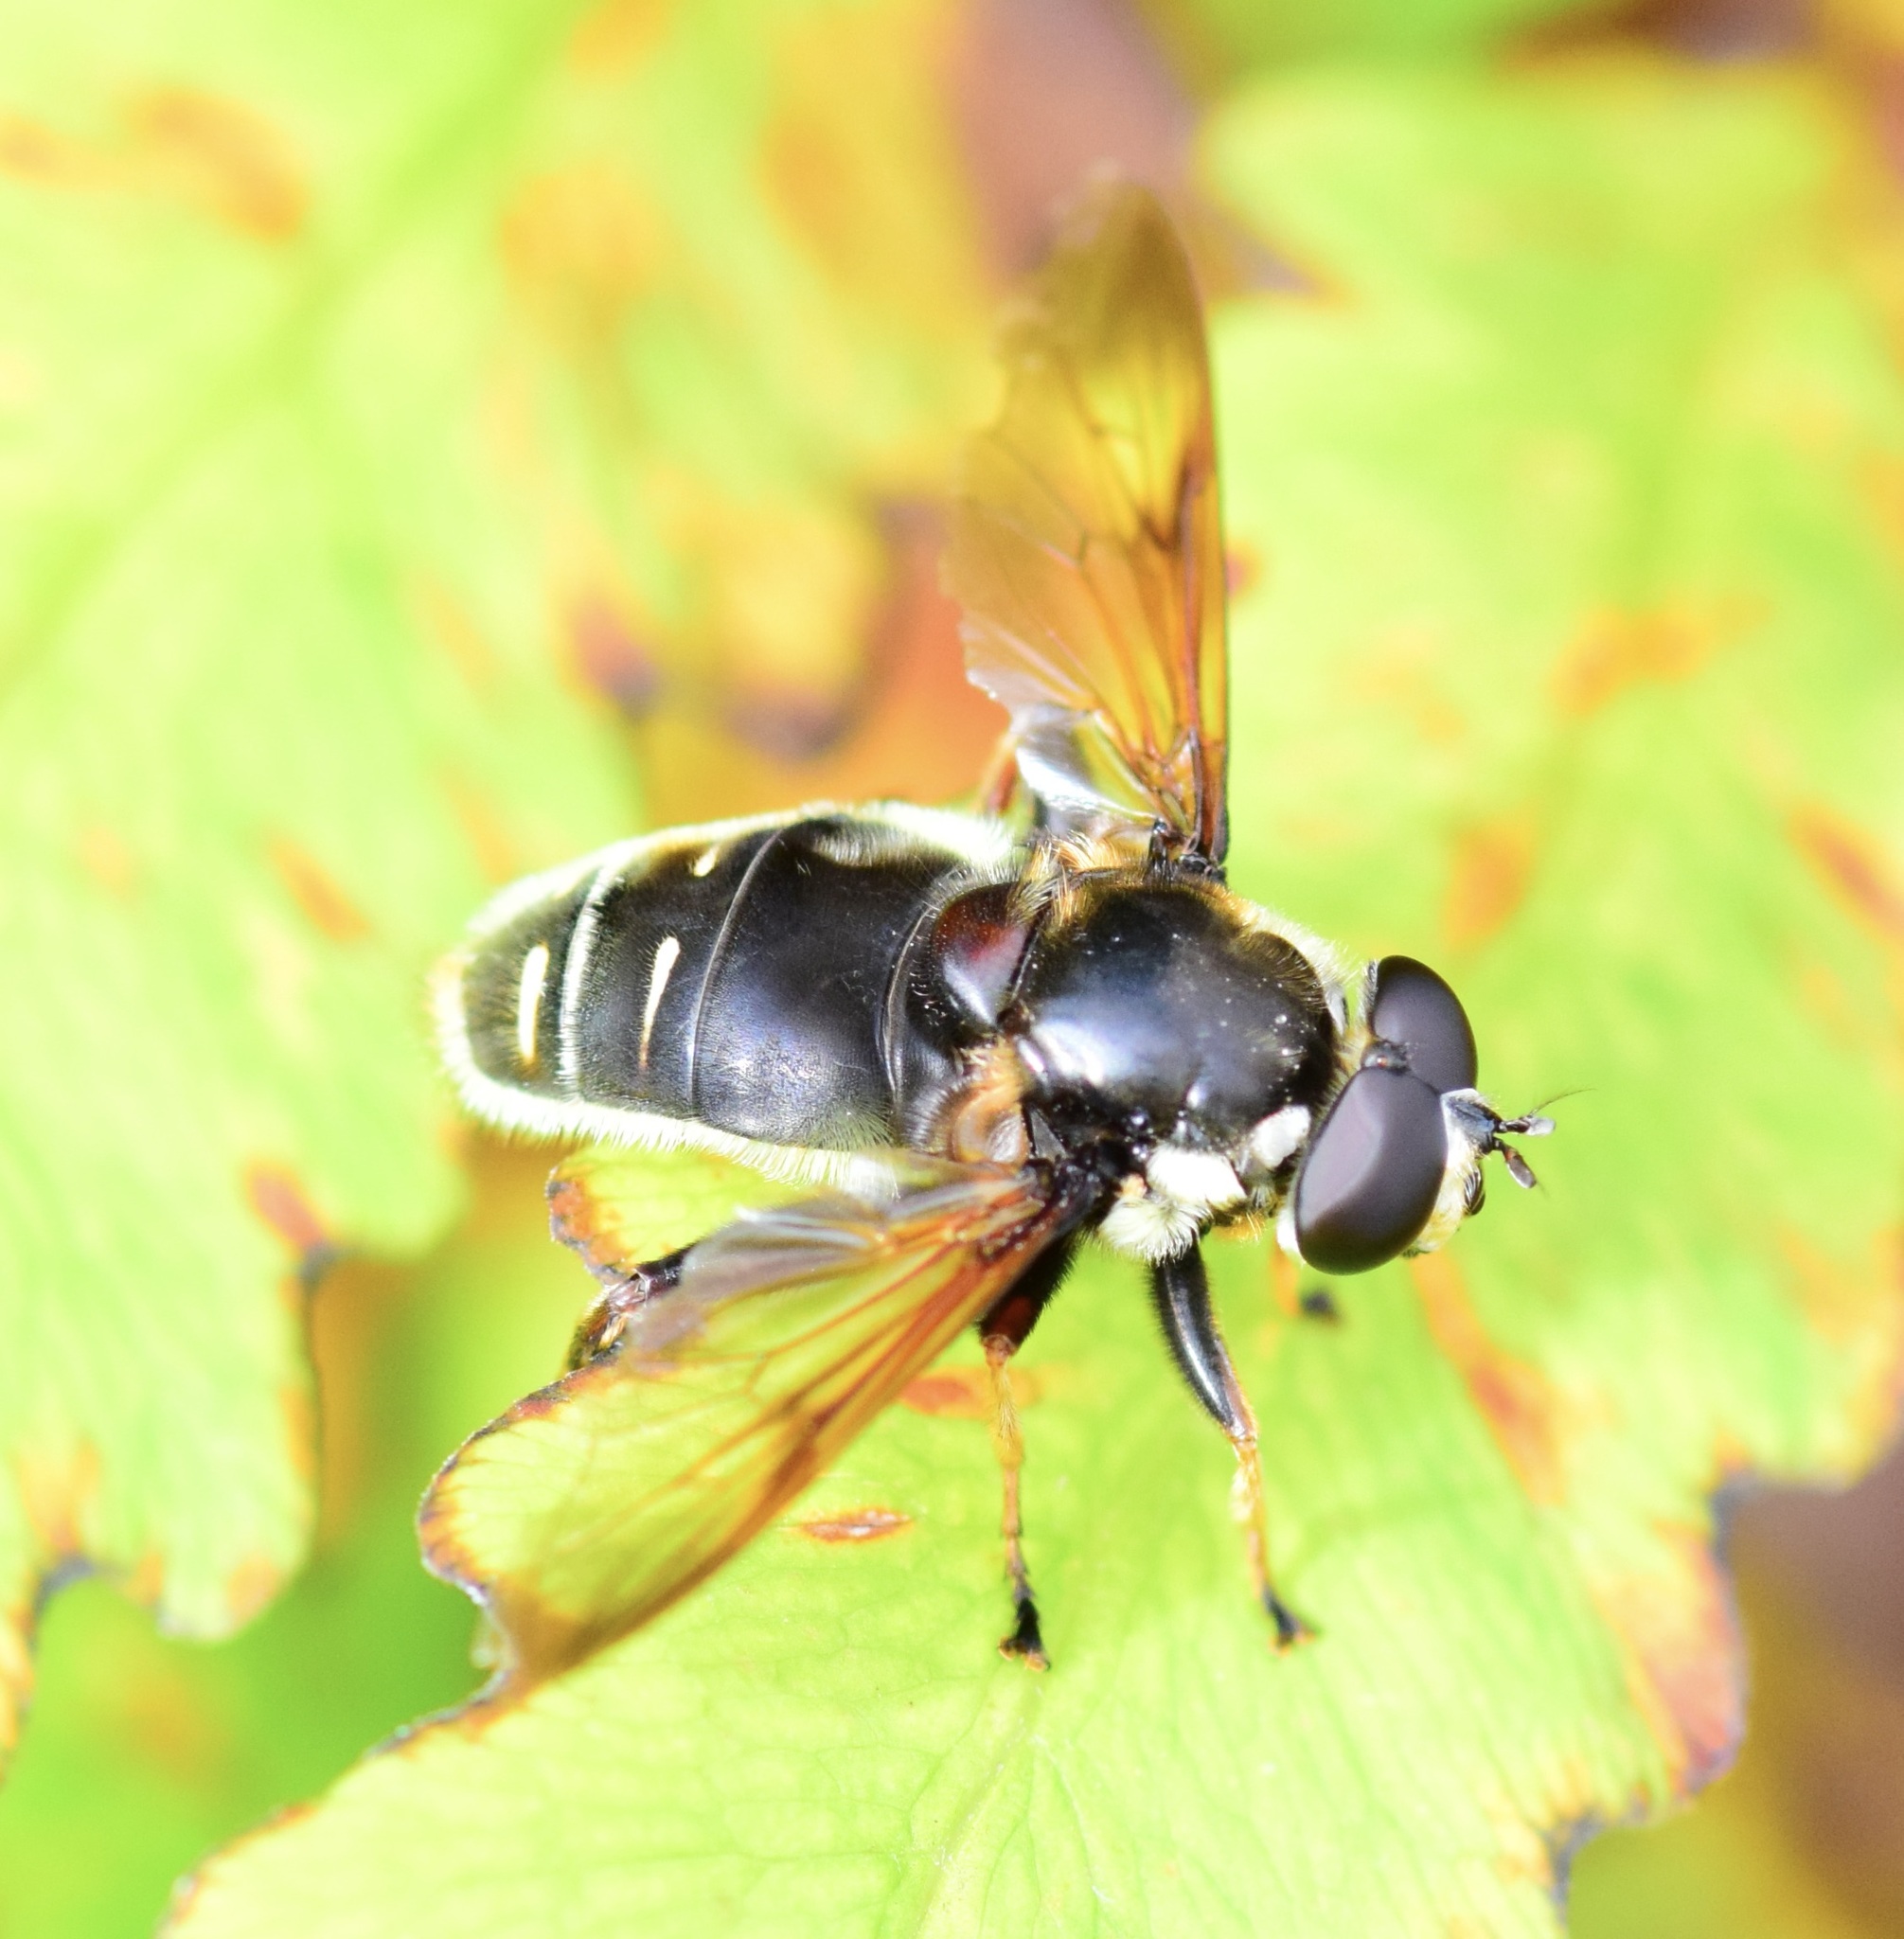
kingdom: Animalia
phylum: Arthropoda
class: Insecta
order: Diptera
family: Syrphidae
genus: Sericomyia
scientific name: Sericomyia militaris
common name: Narrow-banded pond fly
